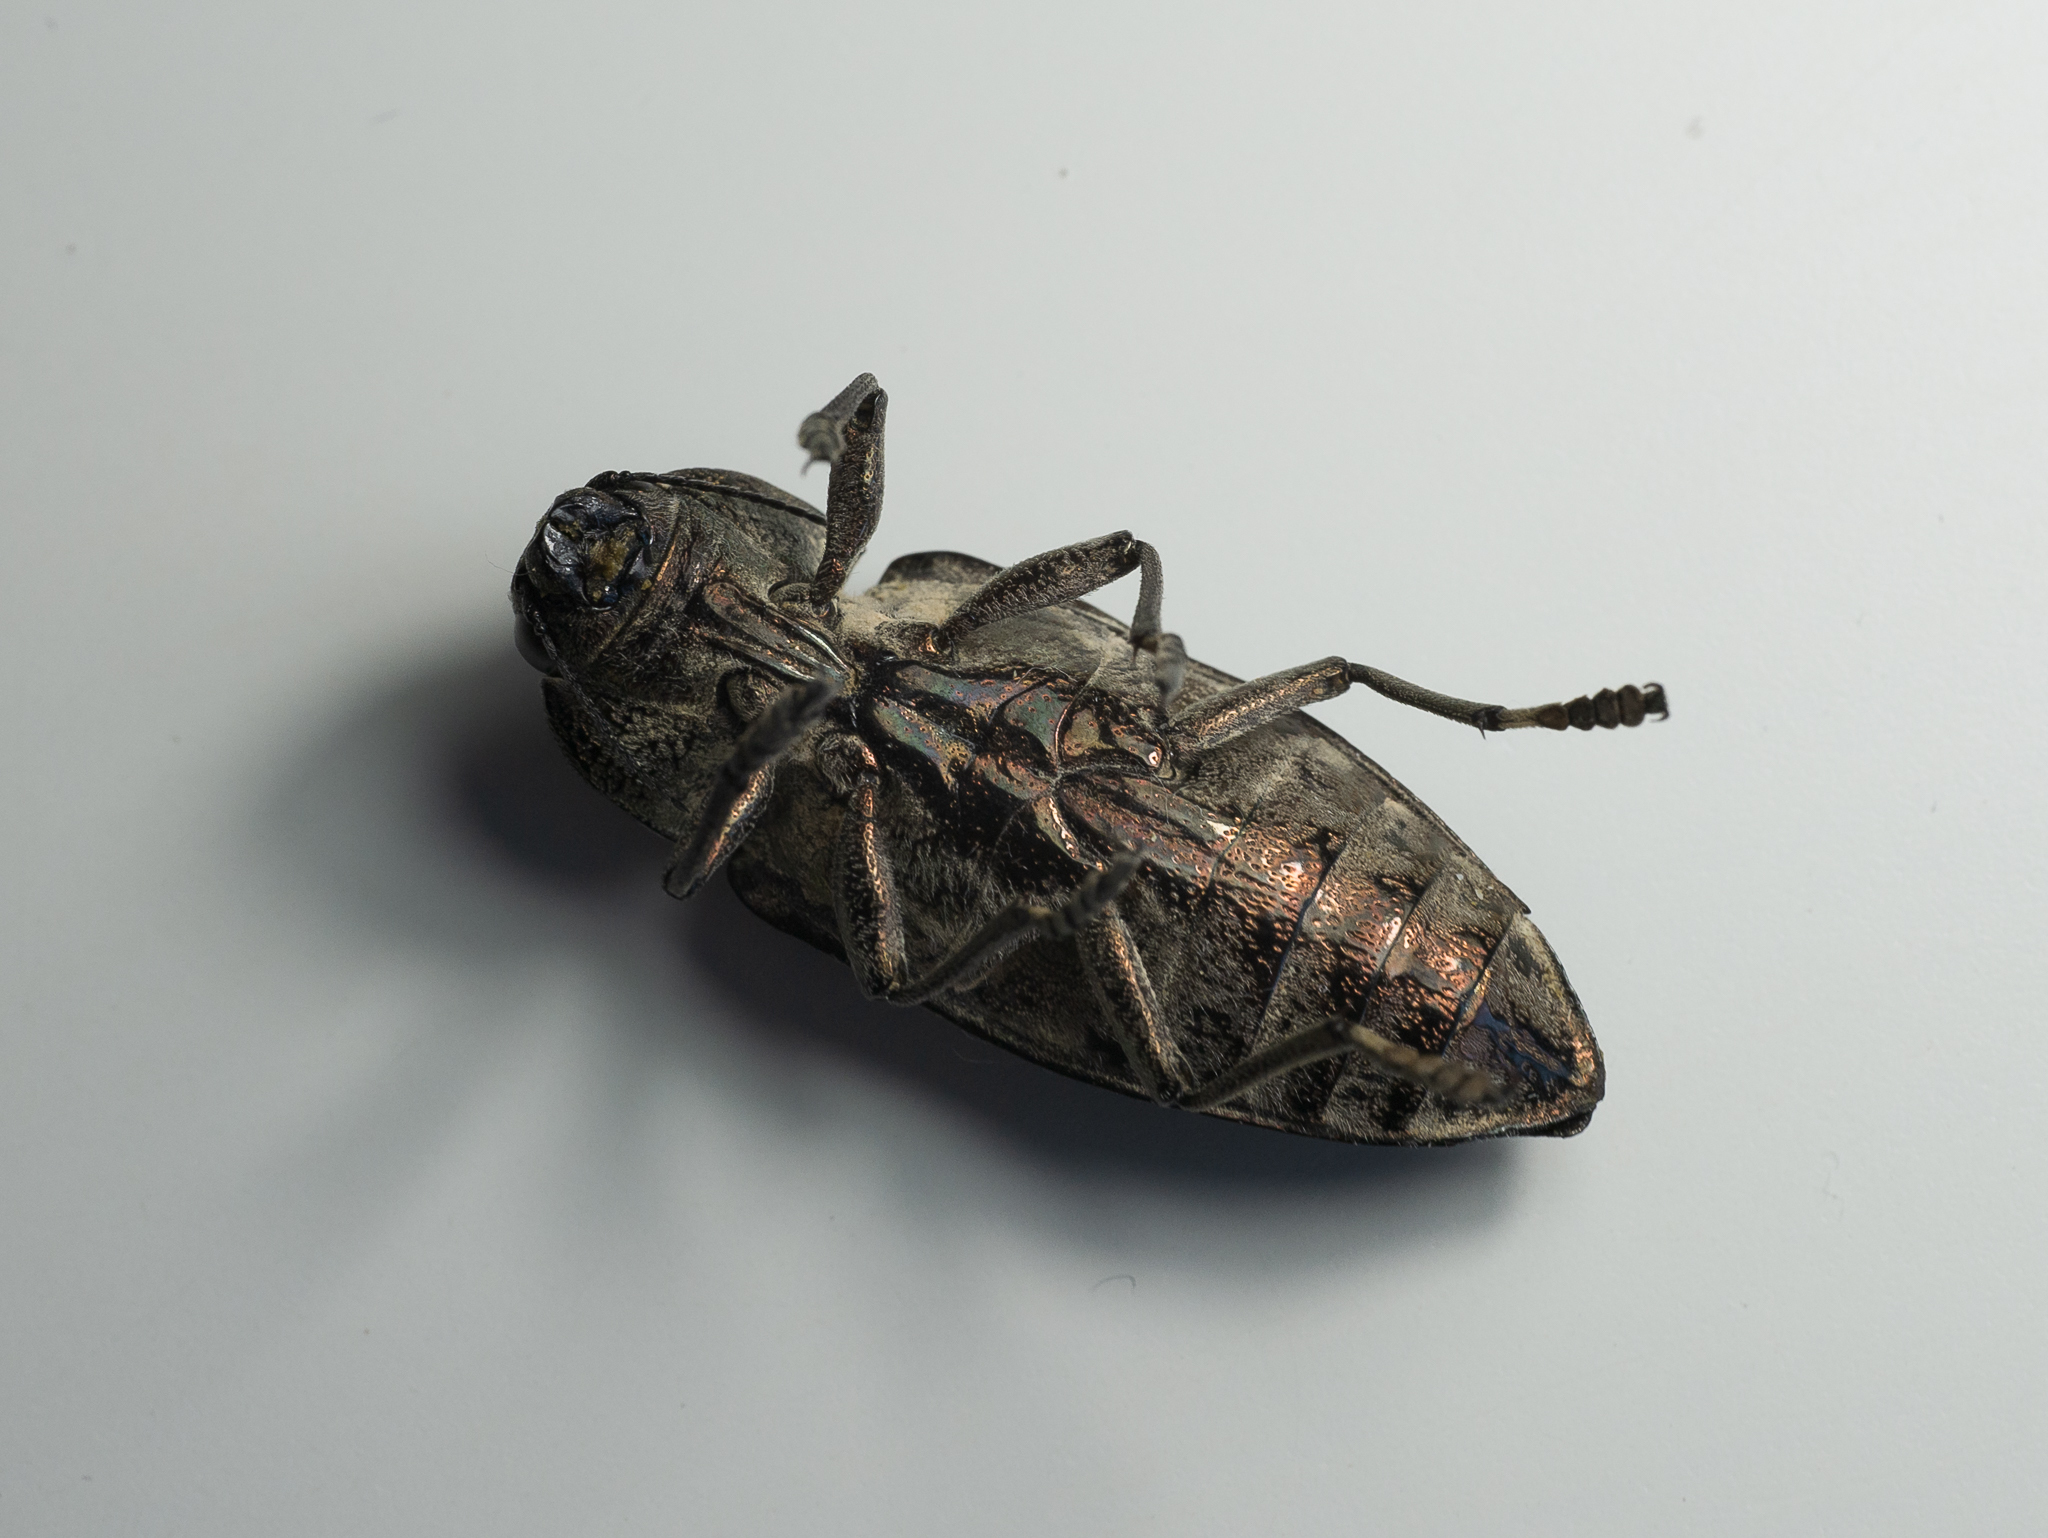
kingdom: Animalia
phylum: Arthropoda
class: Insecta
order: Coleoptera
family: Buprestidae
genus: Chalcophora
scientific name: Chalcophora mariana
